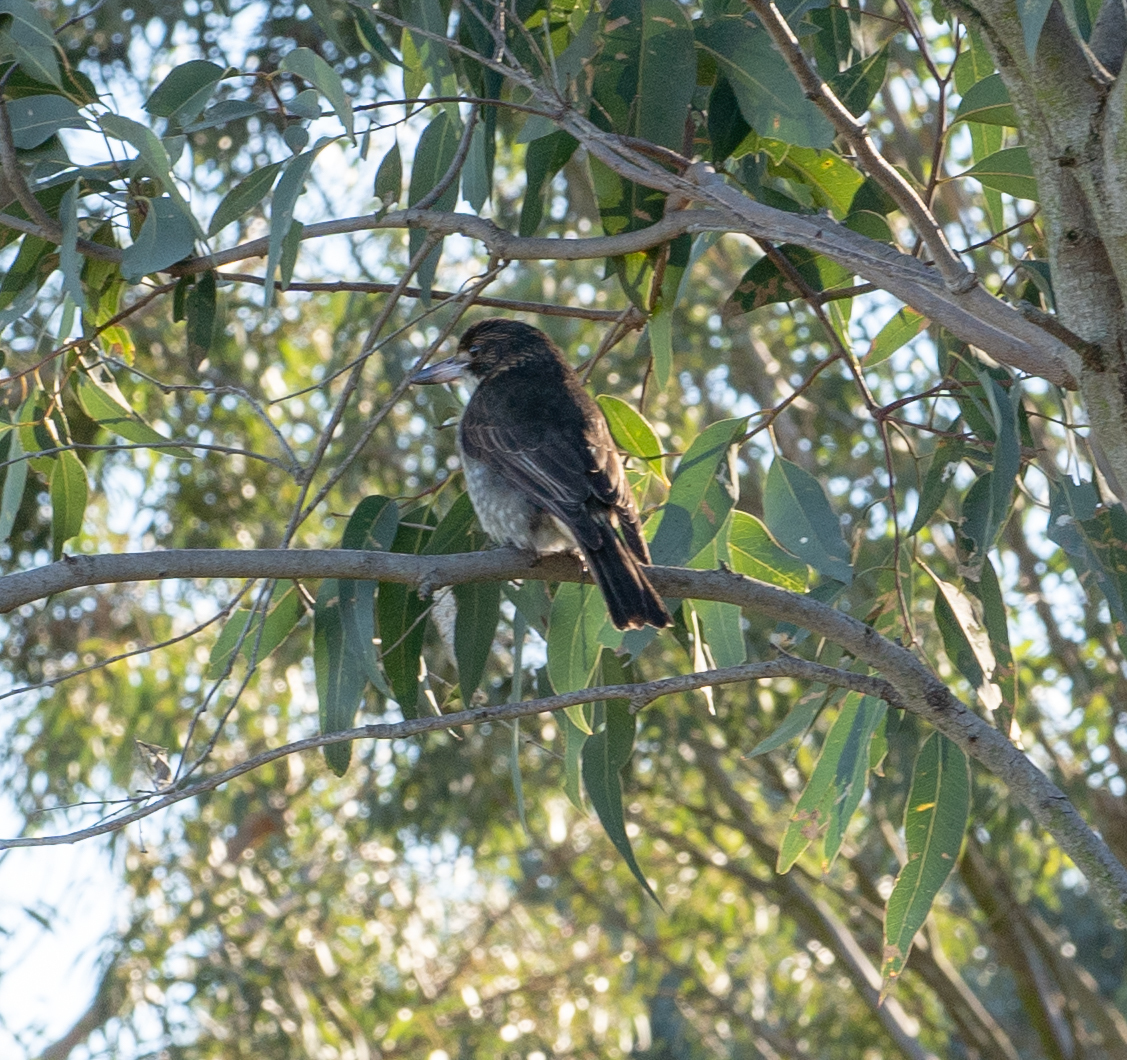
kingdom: Animalia
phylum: Chordata
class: Aves
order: Passeriformes
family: Cracticidae
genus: Cracticus
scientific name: Cracticus torquatus
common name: Grey butcherbird
